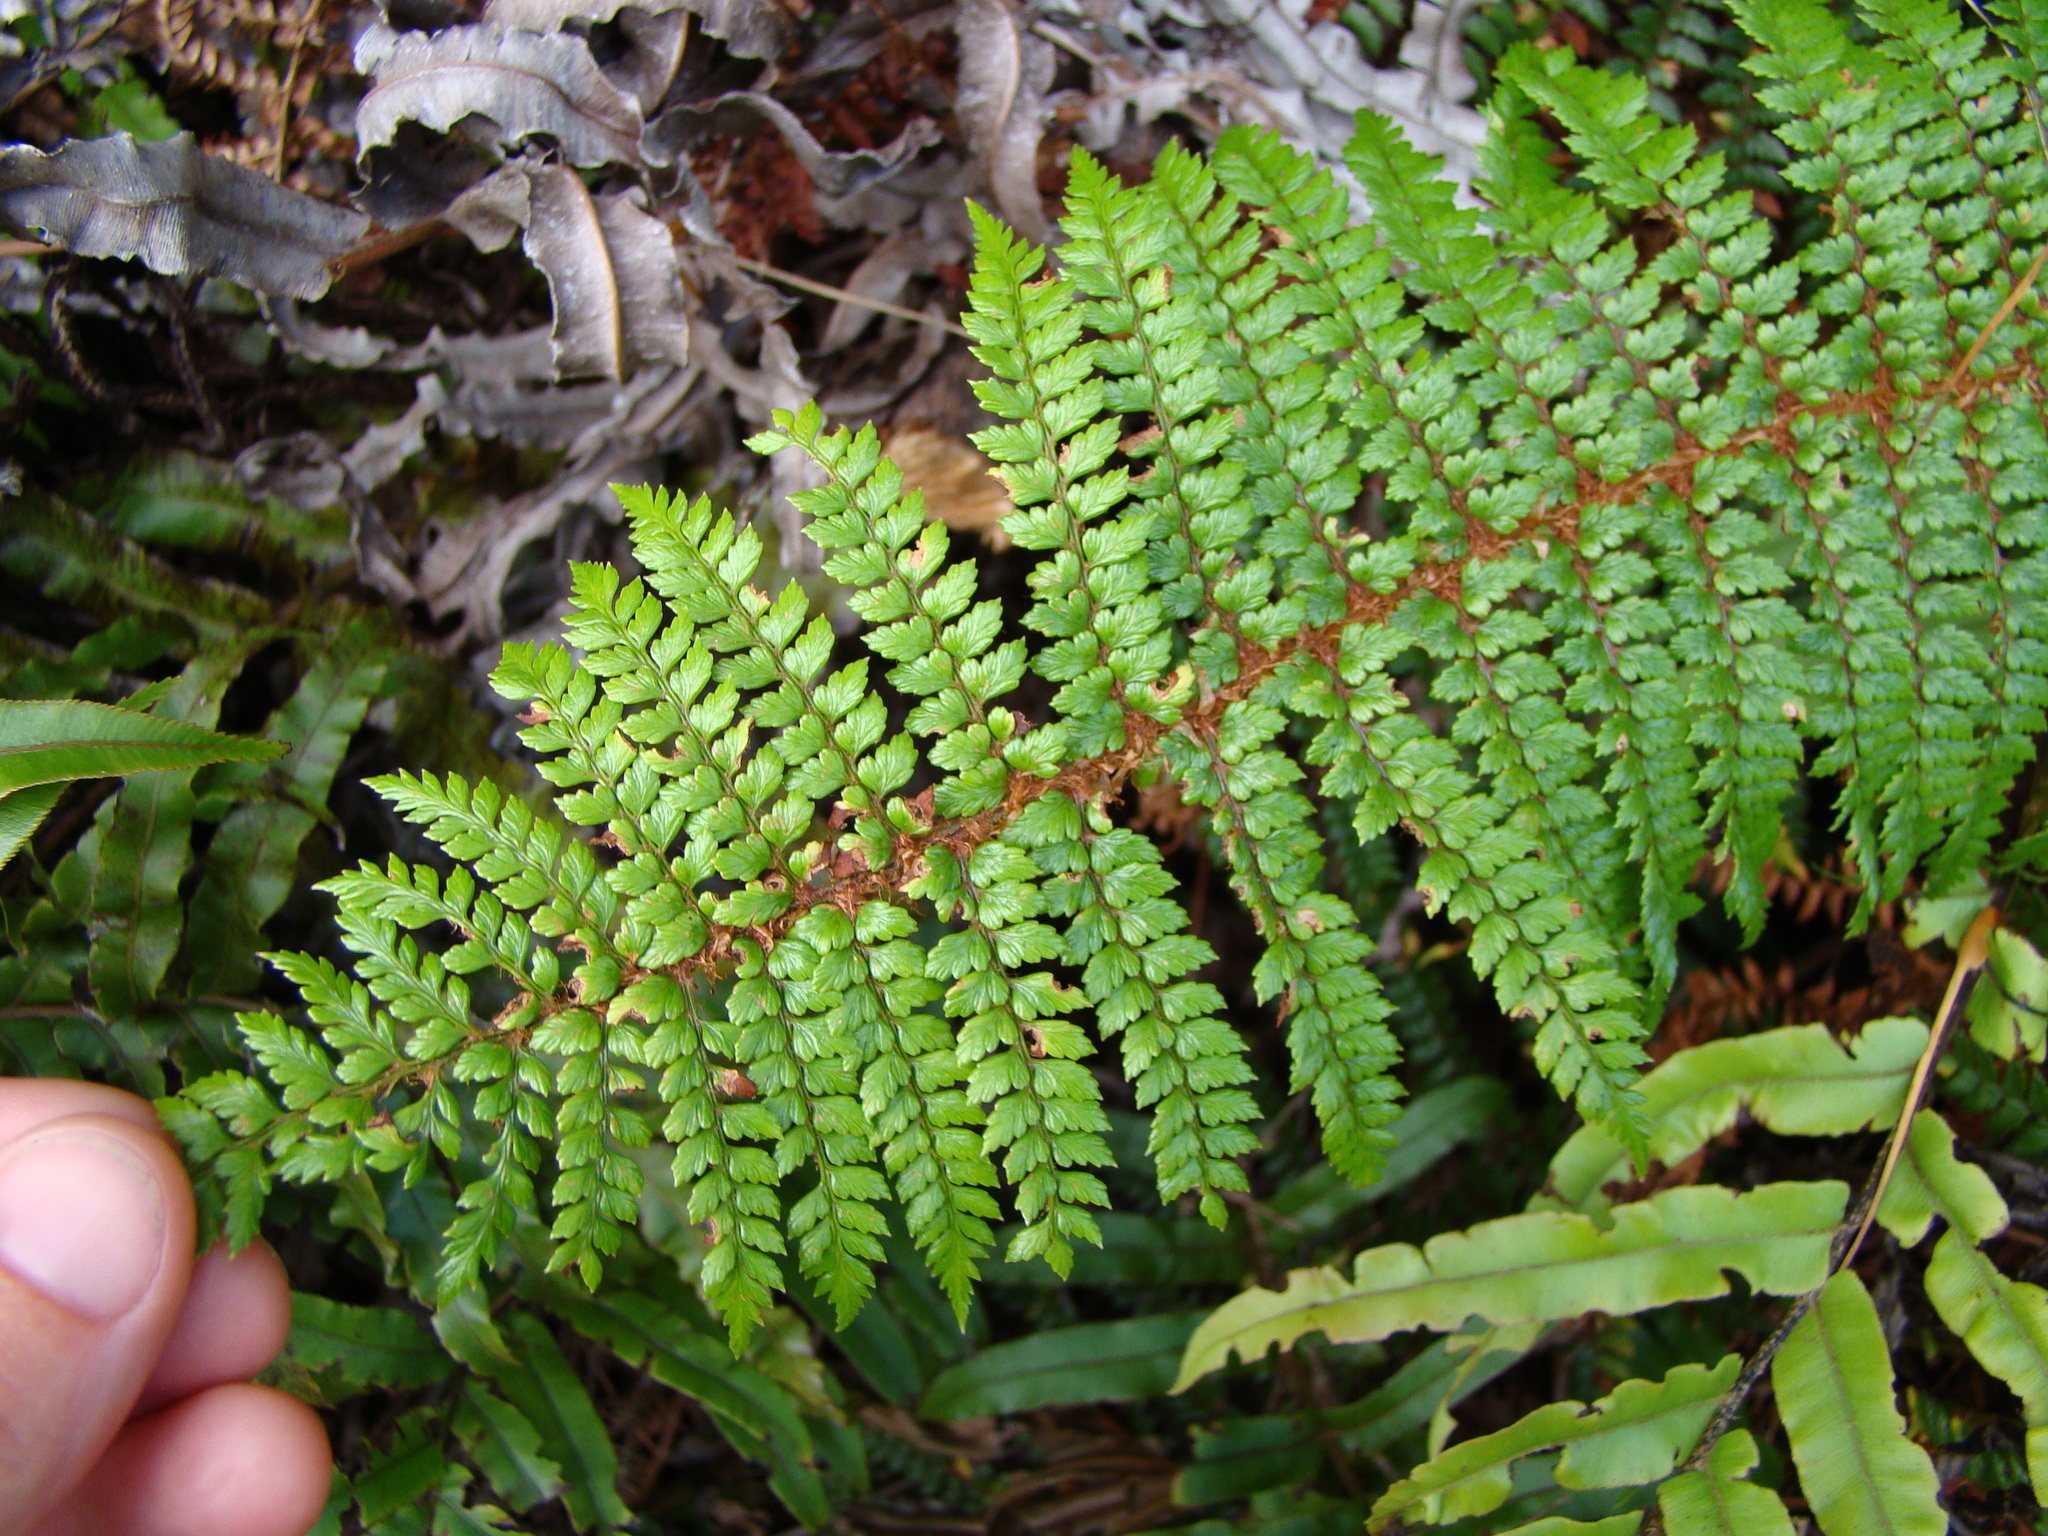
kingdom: Plantae
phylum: Tracheophyta
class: Polypodiopsida
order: Polypodiales
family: Dryopteridaceae
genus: Polystichum
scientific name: Polystichum vestitum
